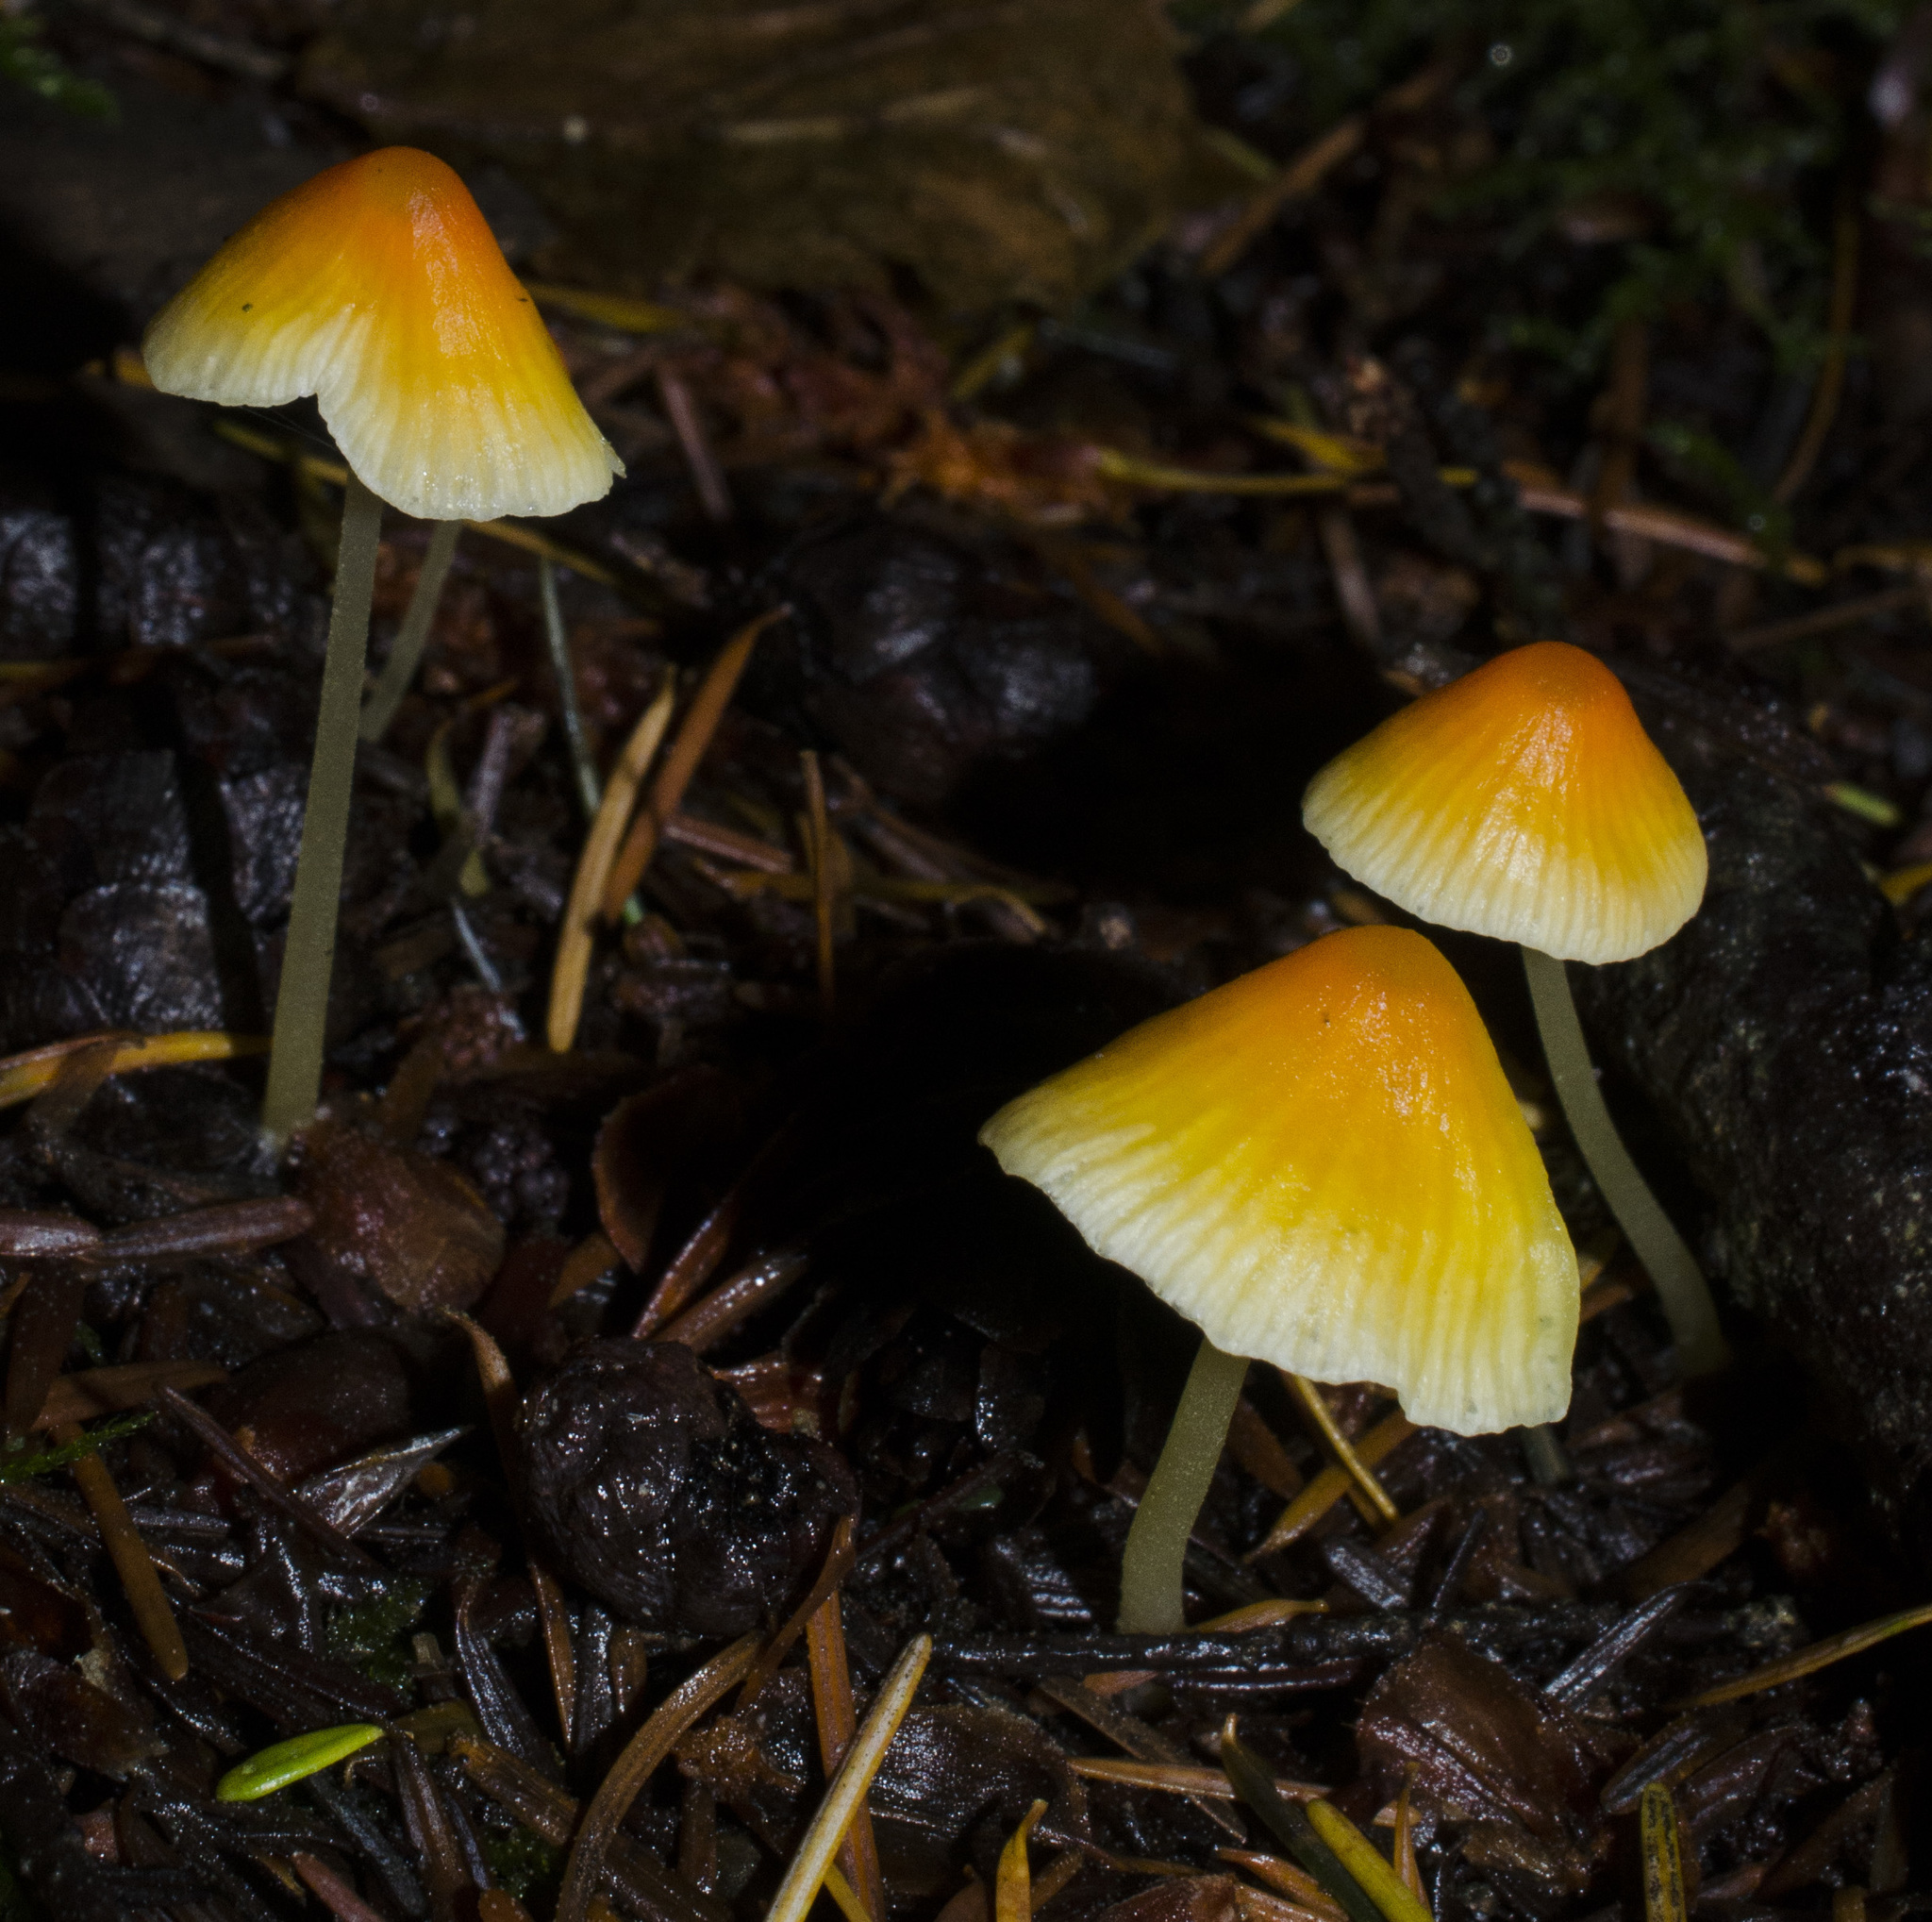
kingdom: Fungi
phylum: Basidiomycota
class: Agaricomycetes
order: Agaricales
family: Mycenaceae
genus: Atheniella
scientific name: Atheniella aurantiidisca
